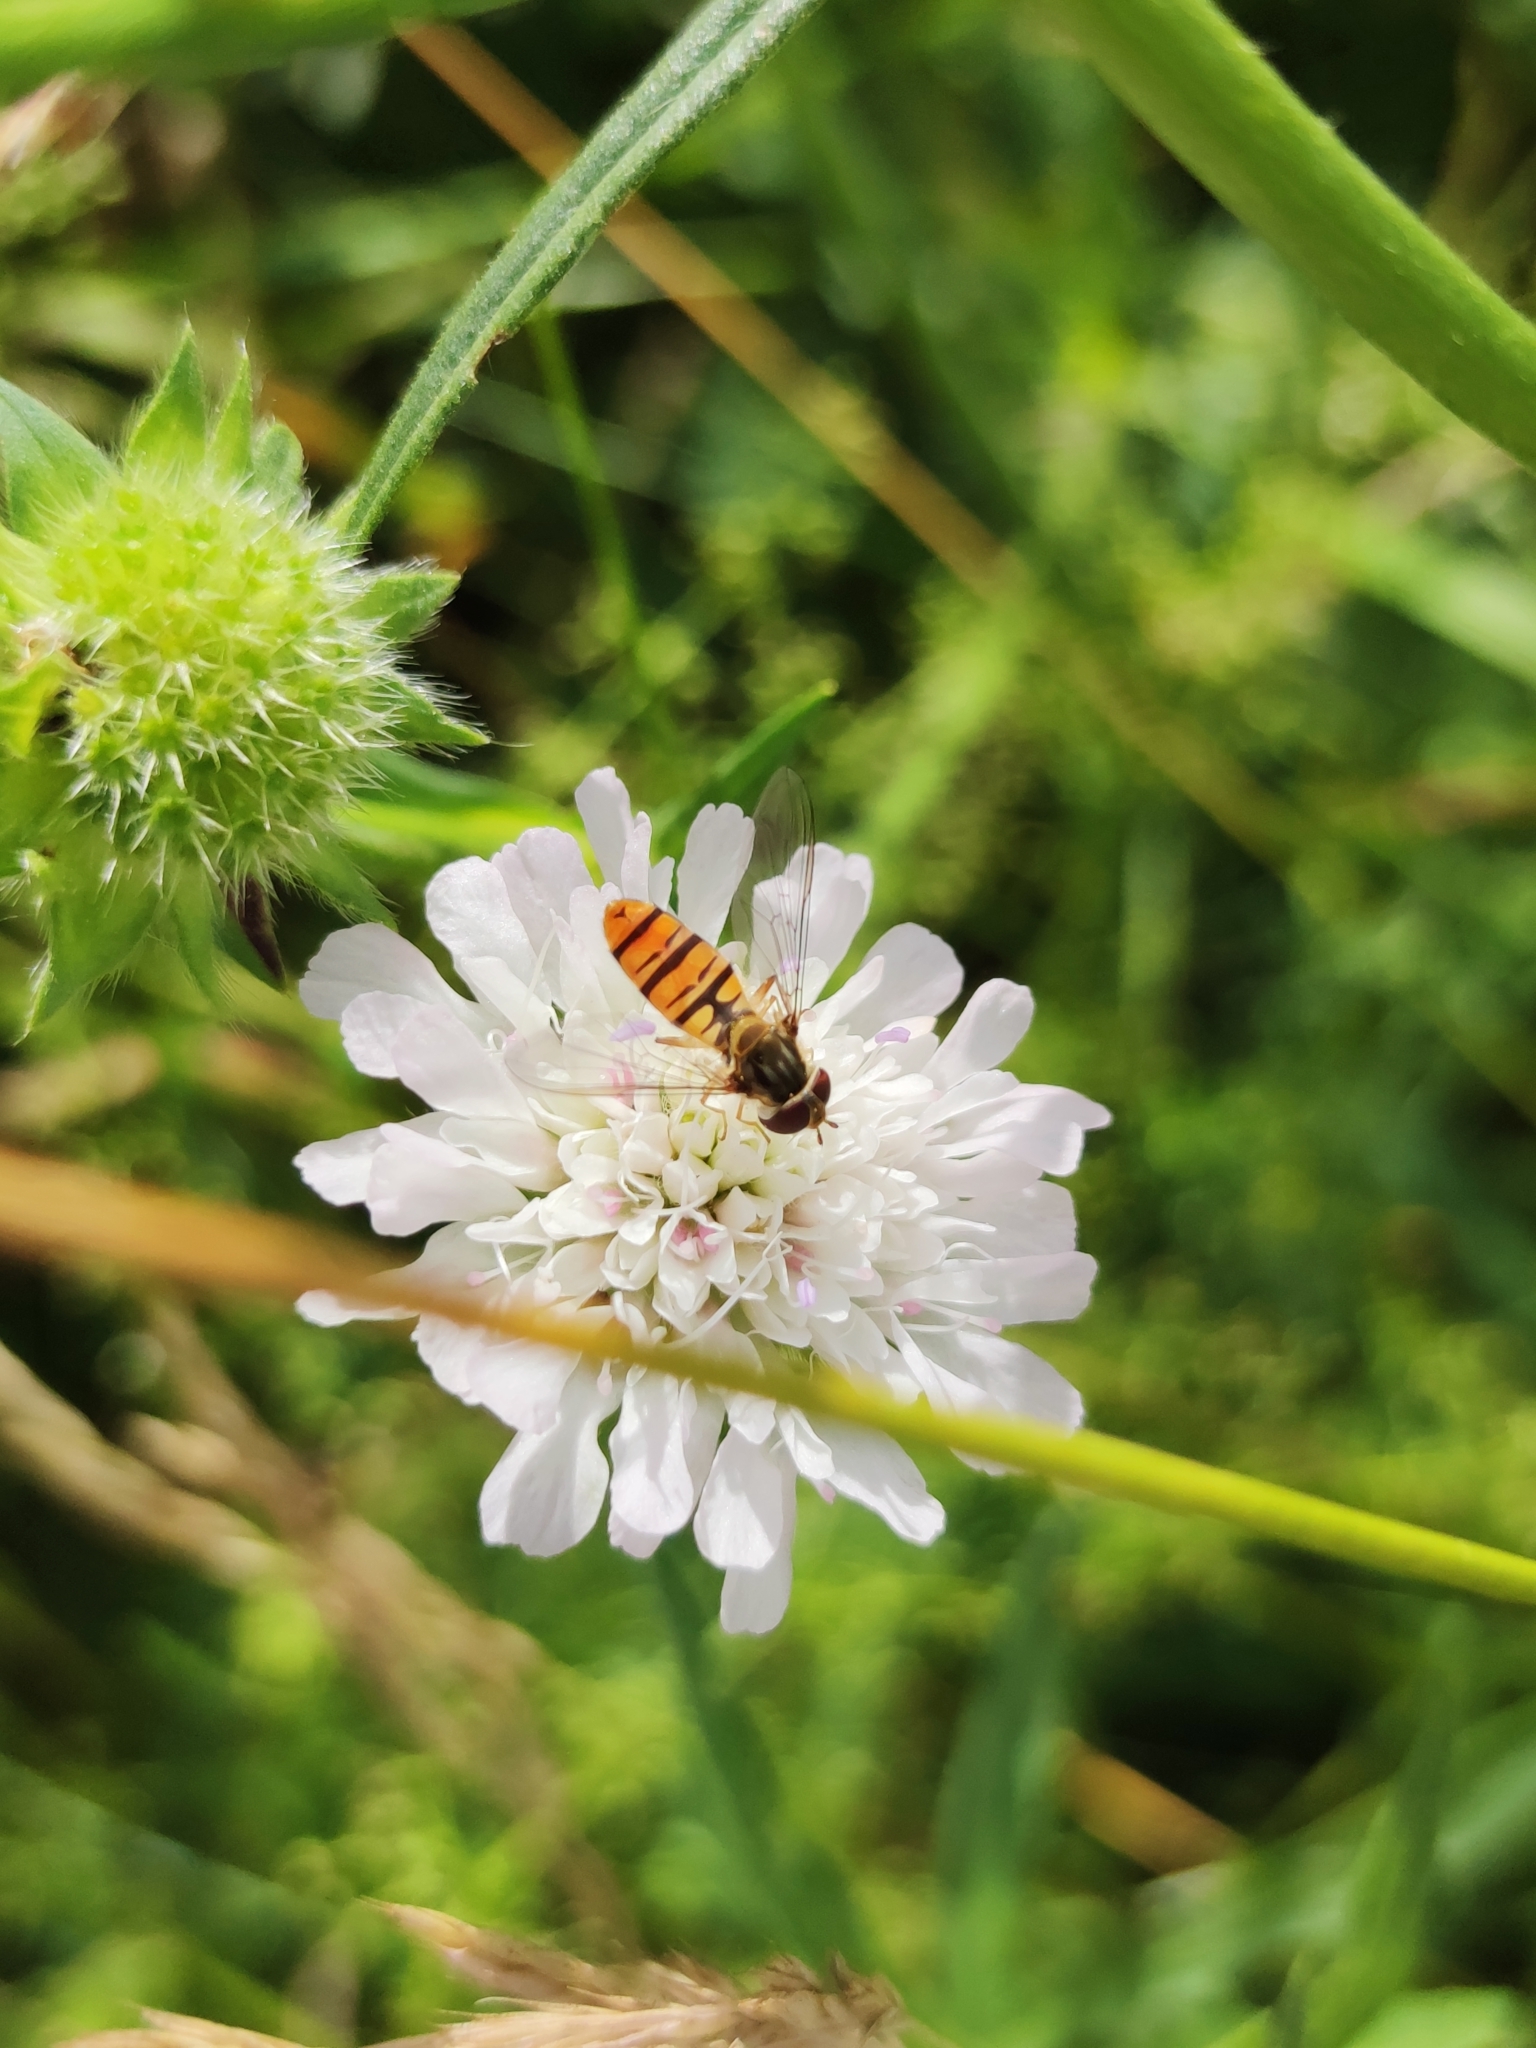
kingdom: Animalia
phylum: Arthropoda
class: Insecta
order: Diptera
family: Syrphidae
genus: Episyrphus
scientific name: Episyrphus balteatus
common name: Marmalade hoverfly
